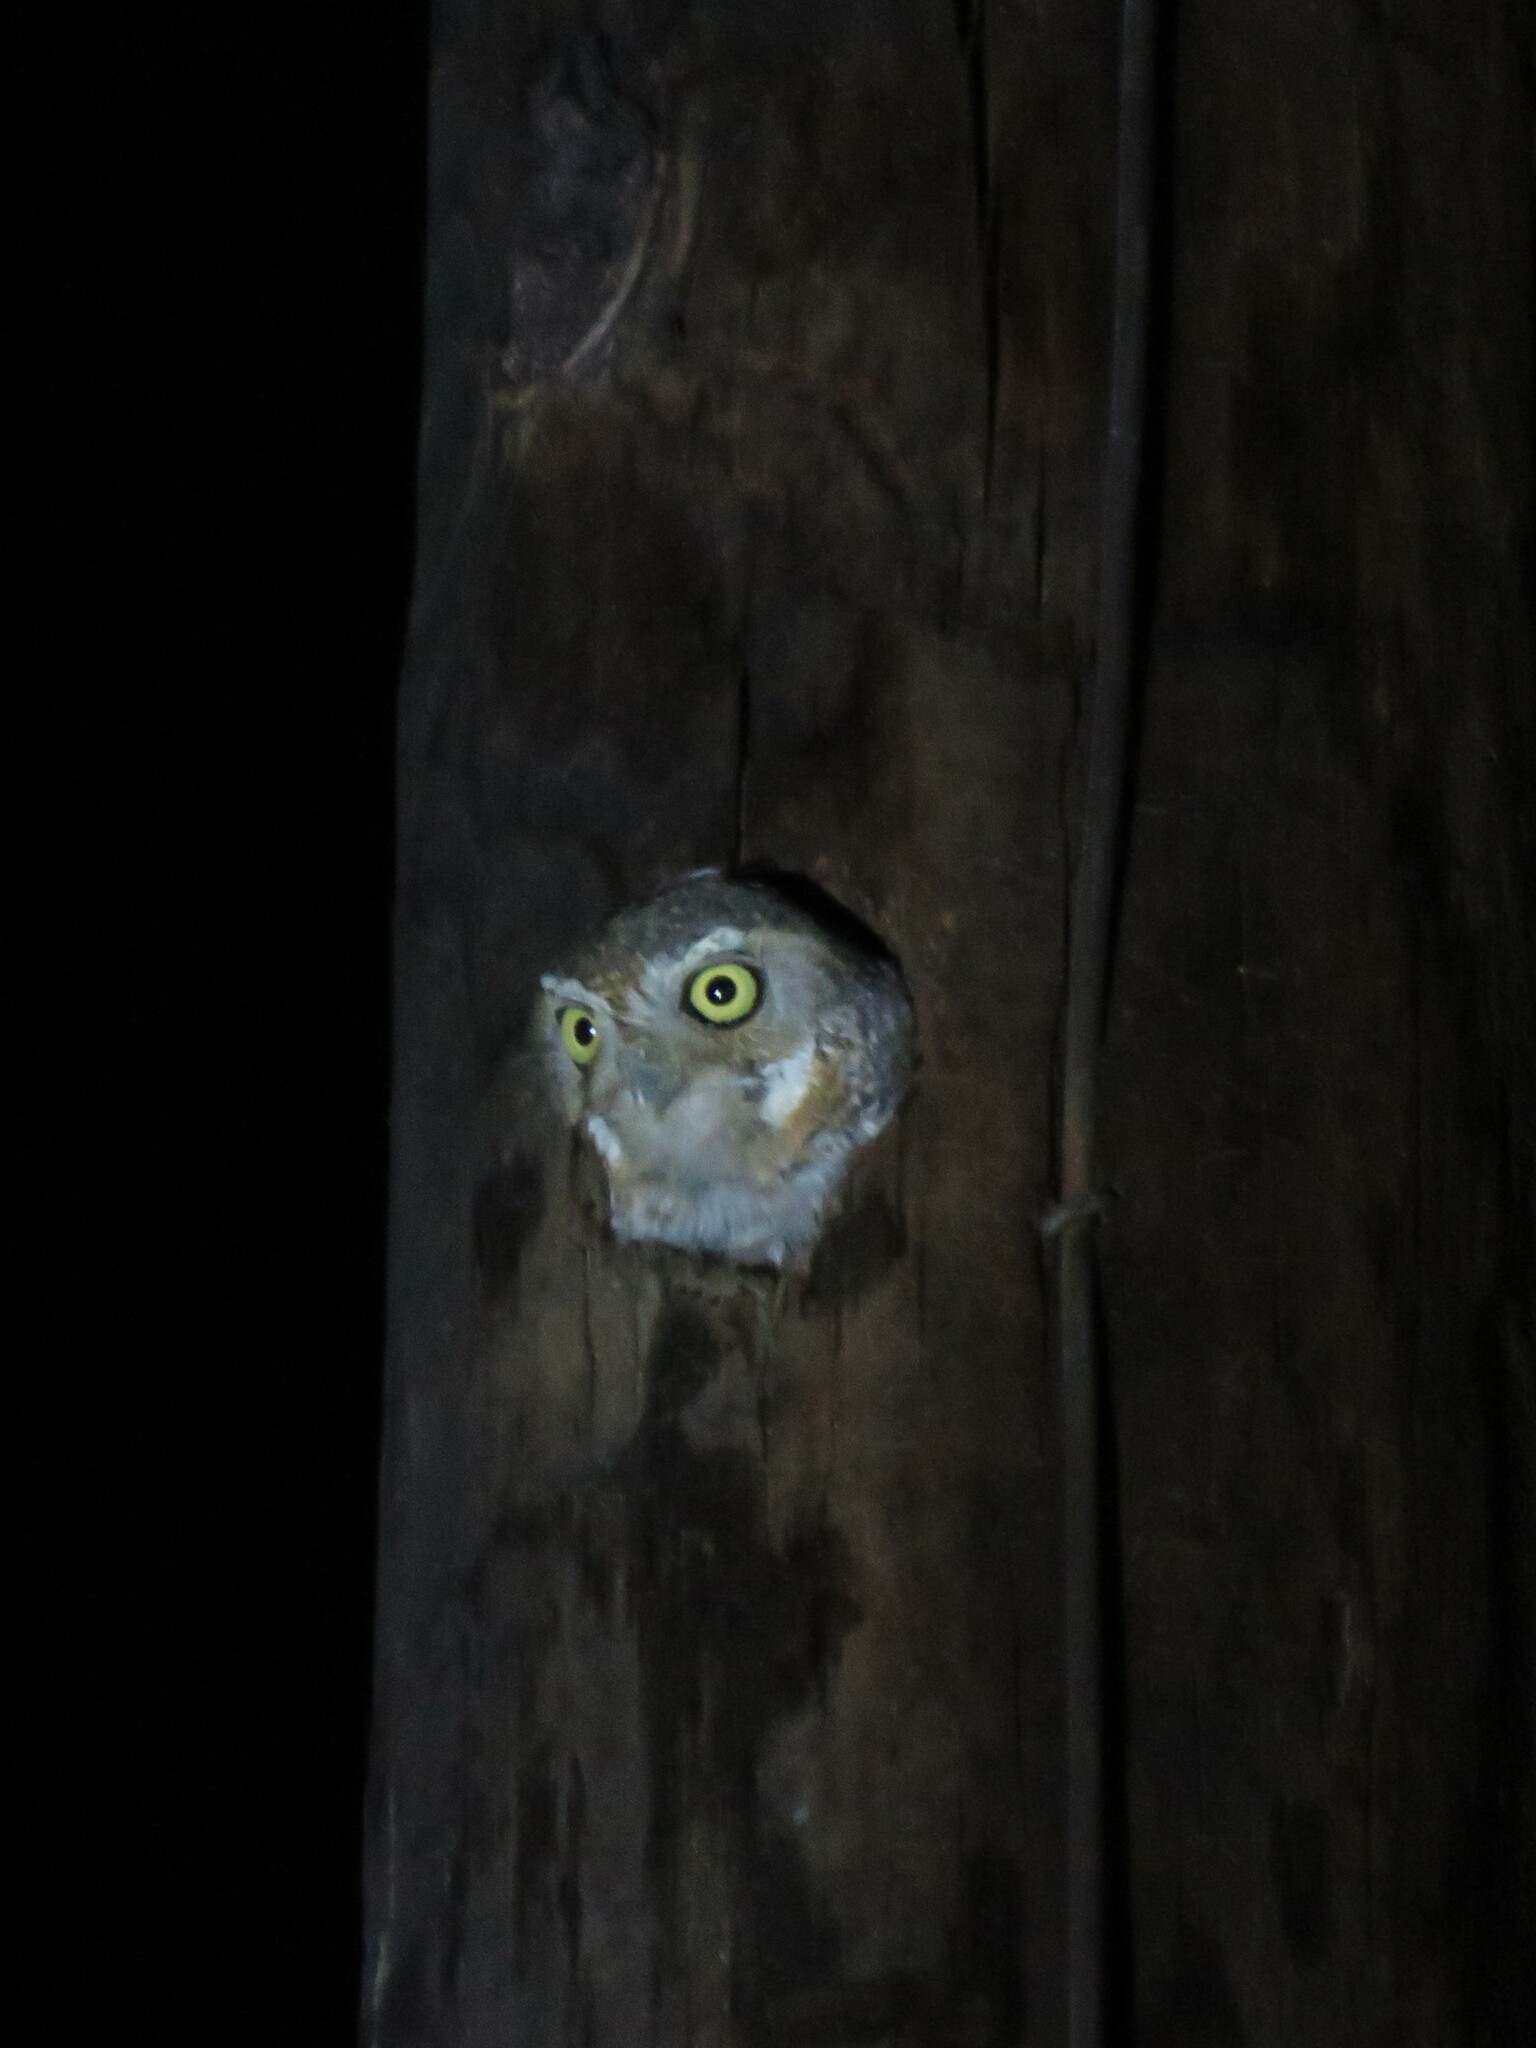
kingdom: Animalia
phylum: Chordata
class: Aves
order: Strigiformes
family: Strigidae
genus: Micrathene
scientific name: Micrathene whitneyi
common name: Elf owl
